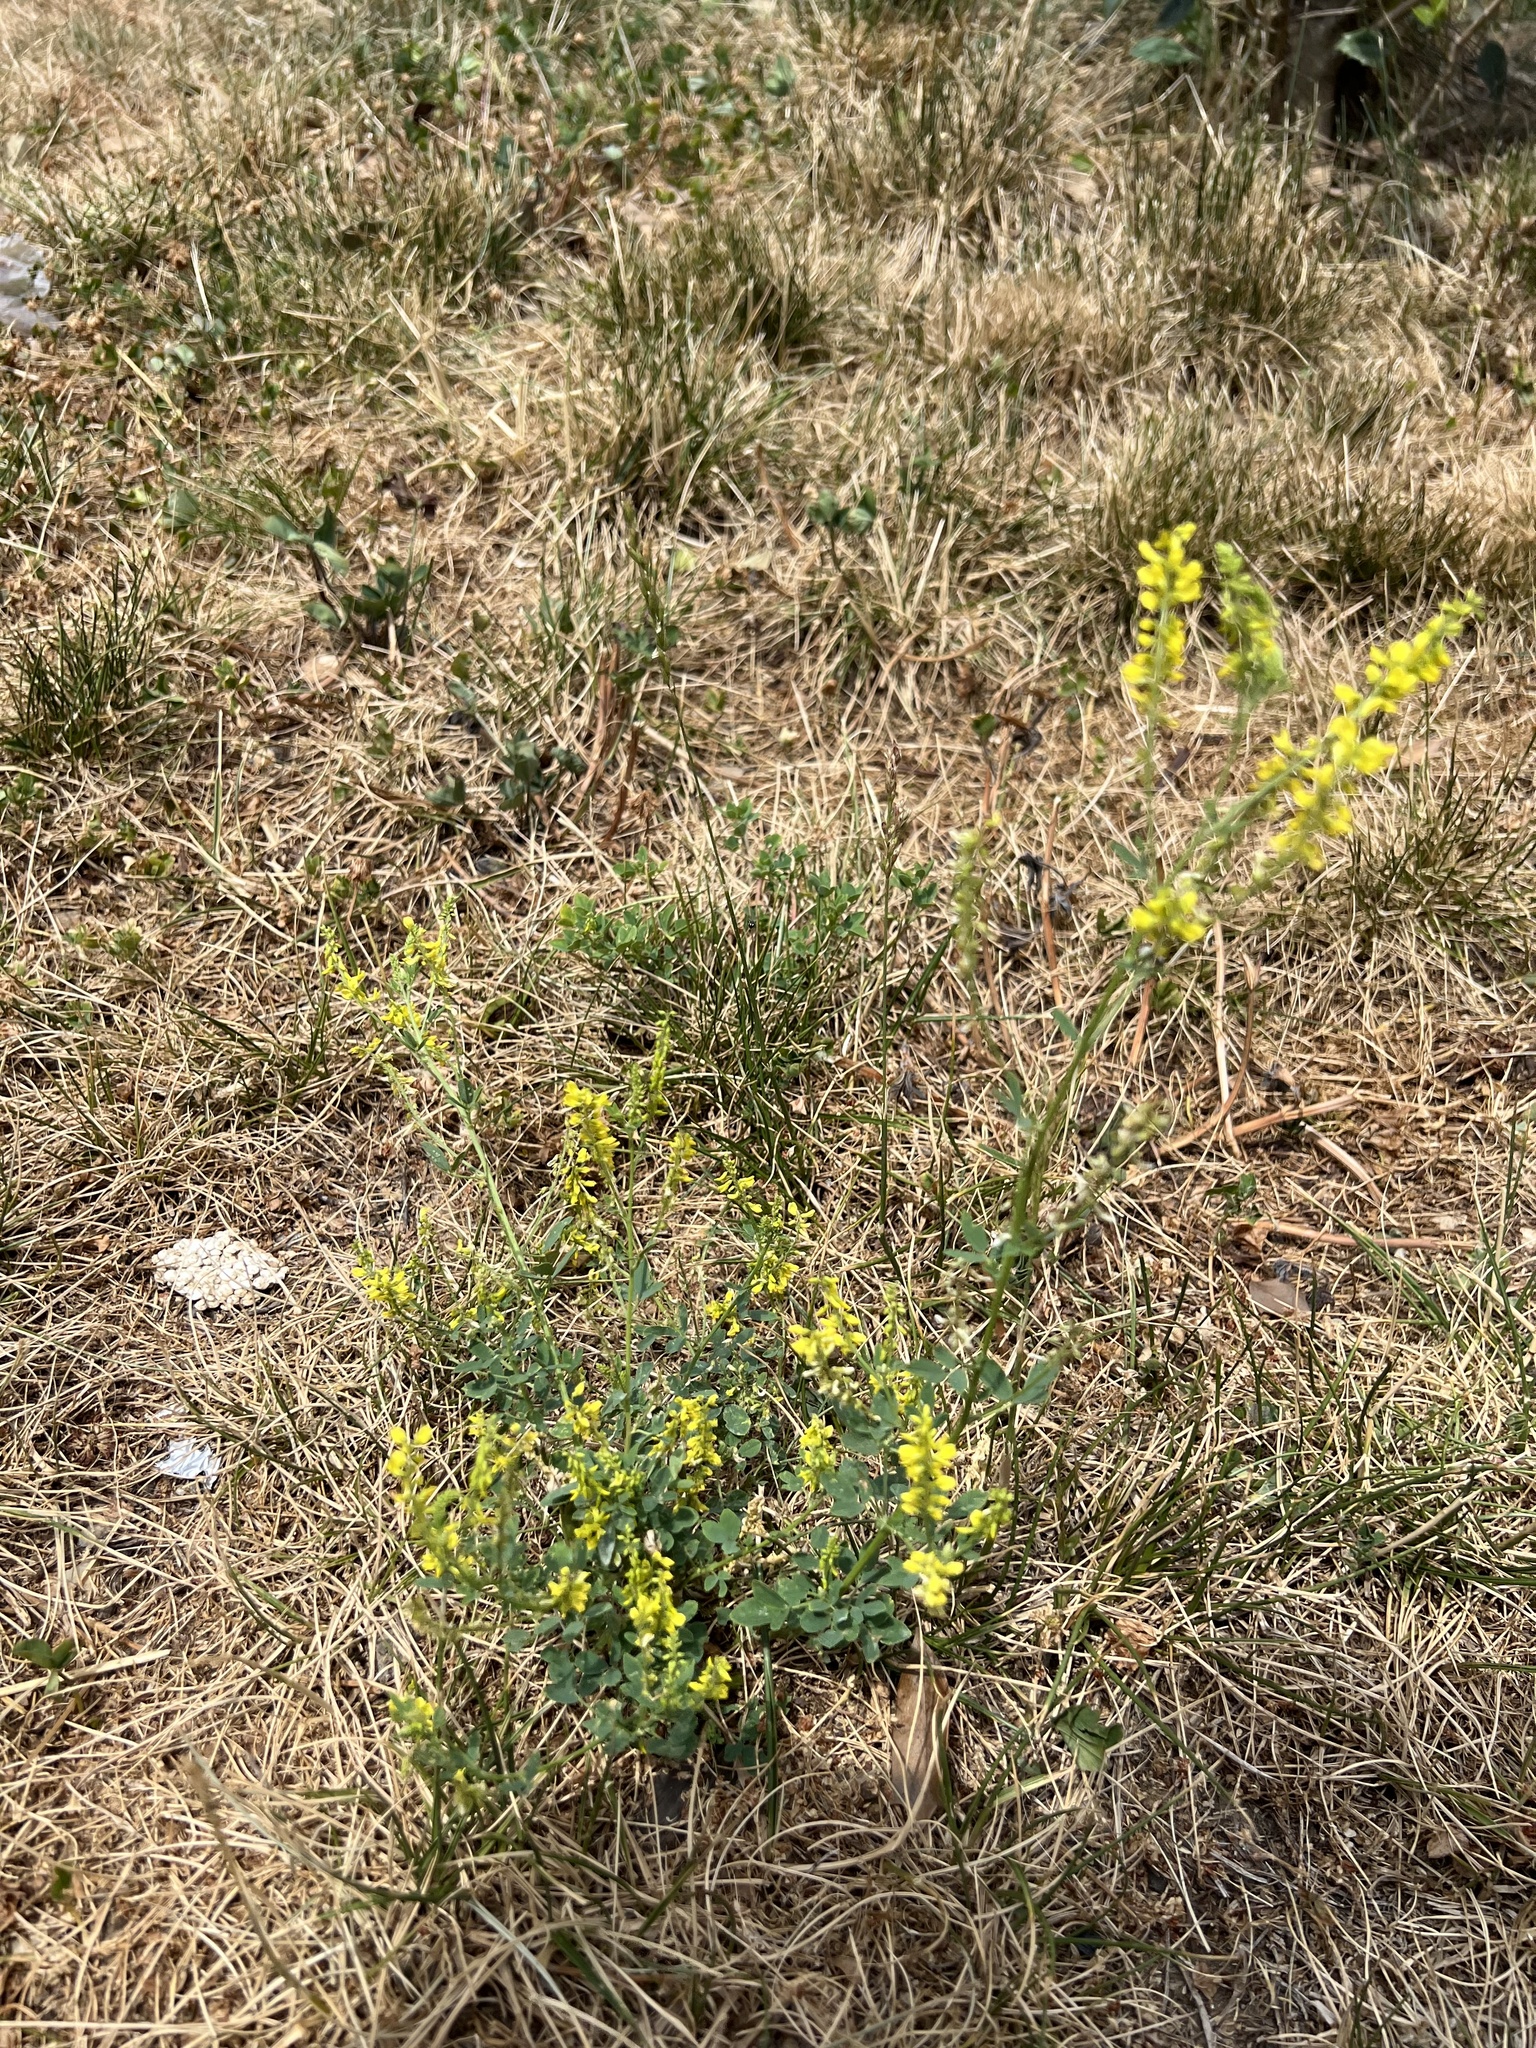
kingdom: Plantae
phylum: Tracheophyta
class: Magnoliopsida
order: Fabales
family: Fabaceae
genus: Melilotus
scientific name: Melilotus officinalis
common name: Sweetclover
